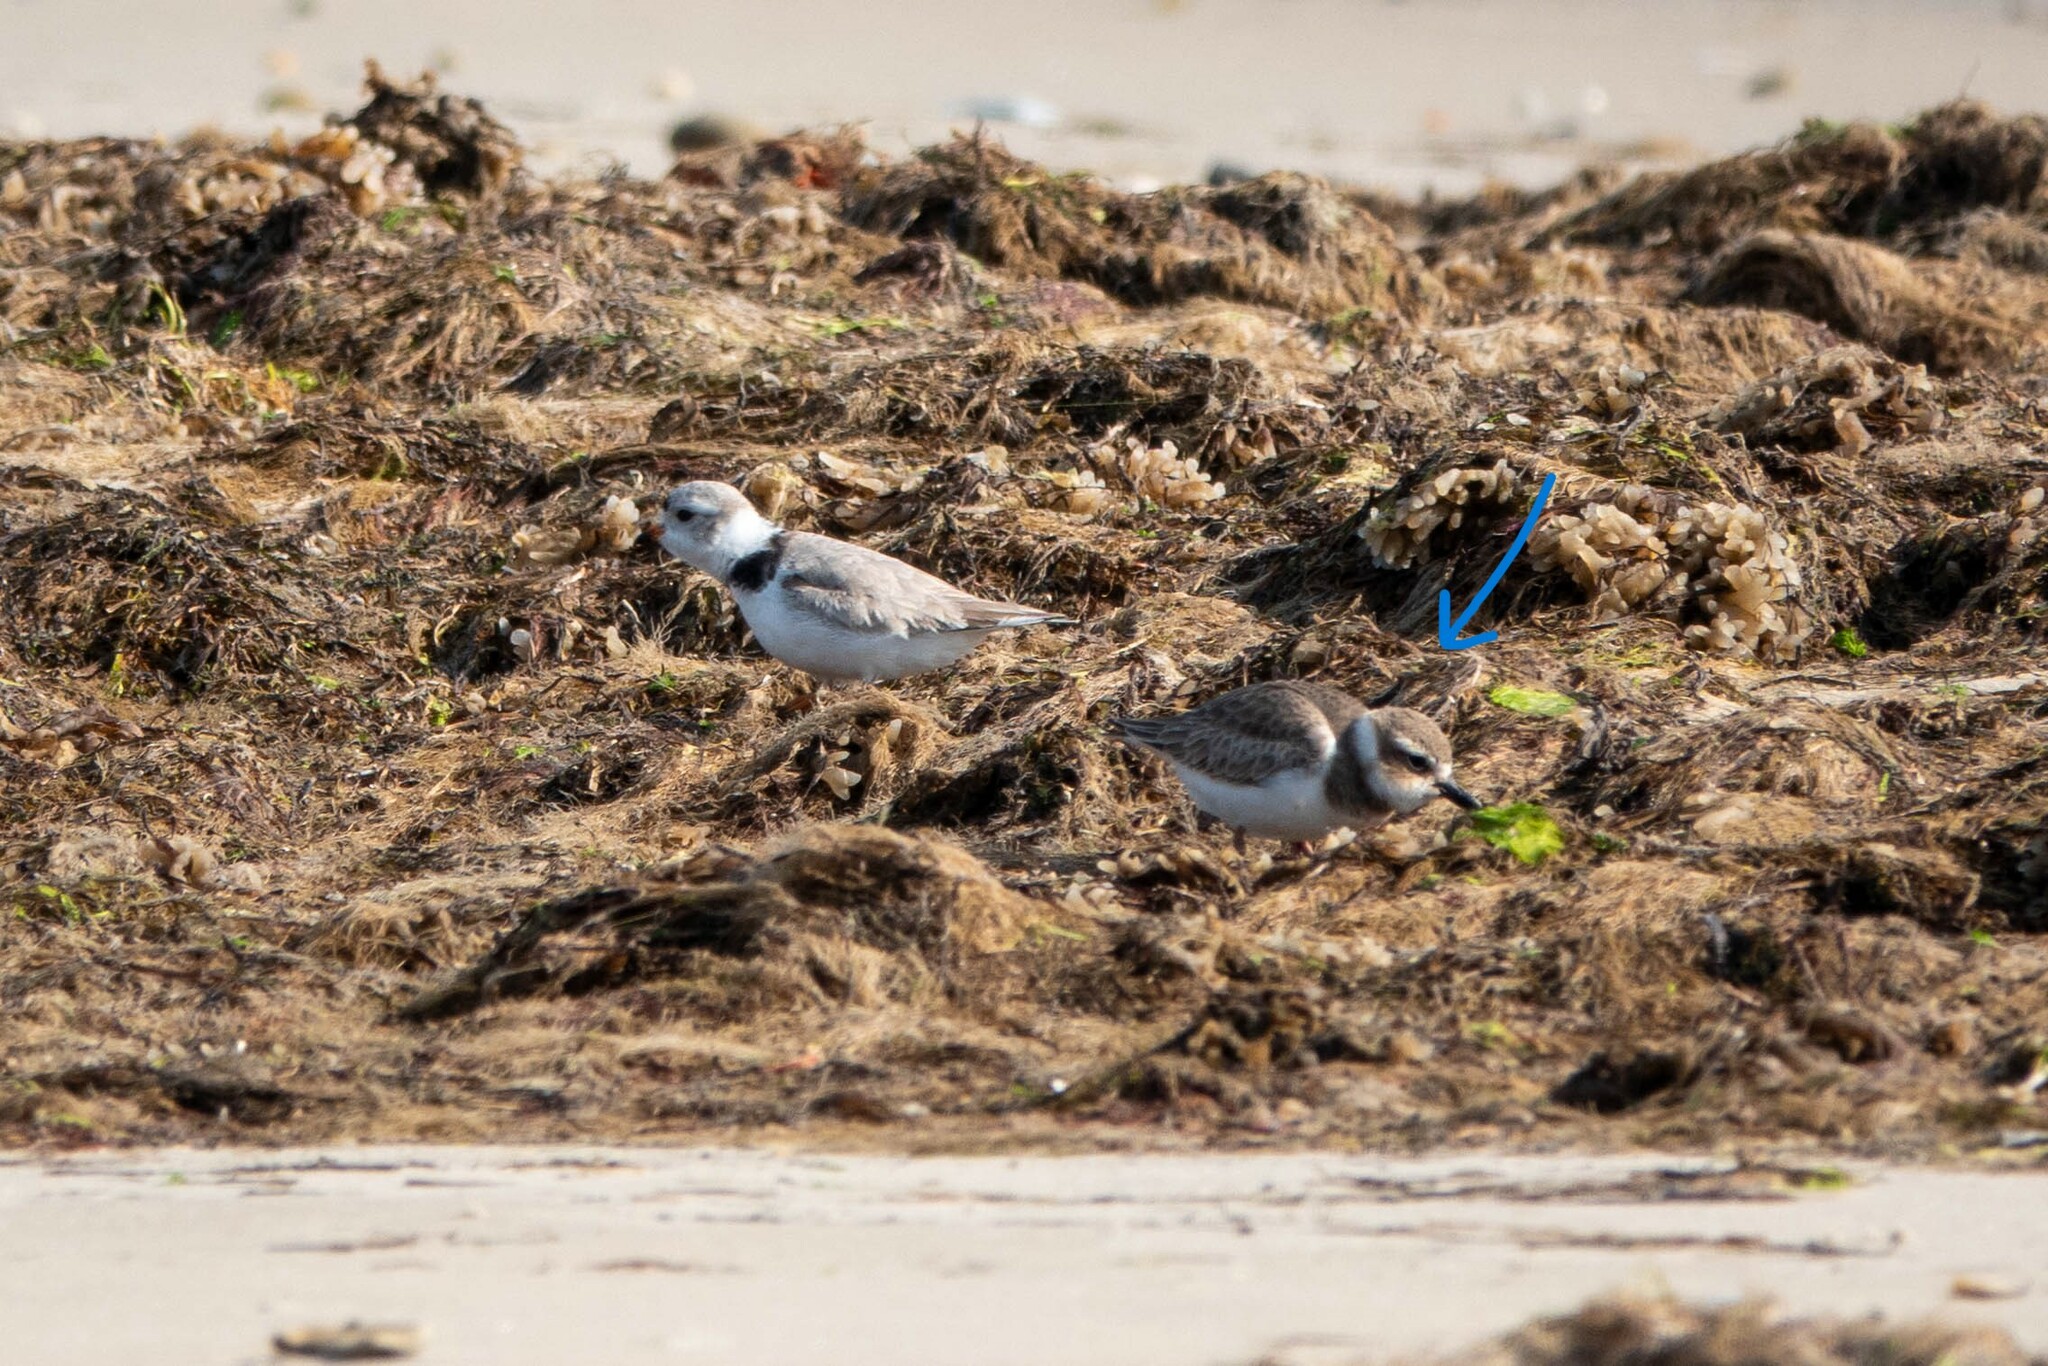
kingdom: Animalia
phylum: Chordata
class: Aves
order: Charadriiformes
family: Charadriidae
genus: Anarhynchus
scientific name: Anarhynchus
